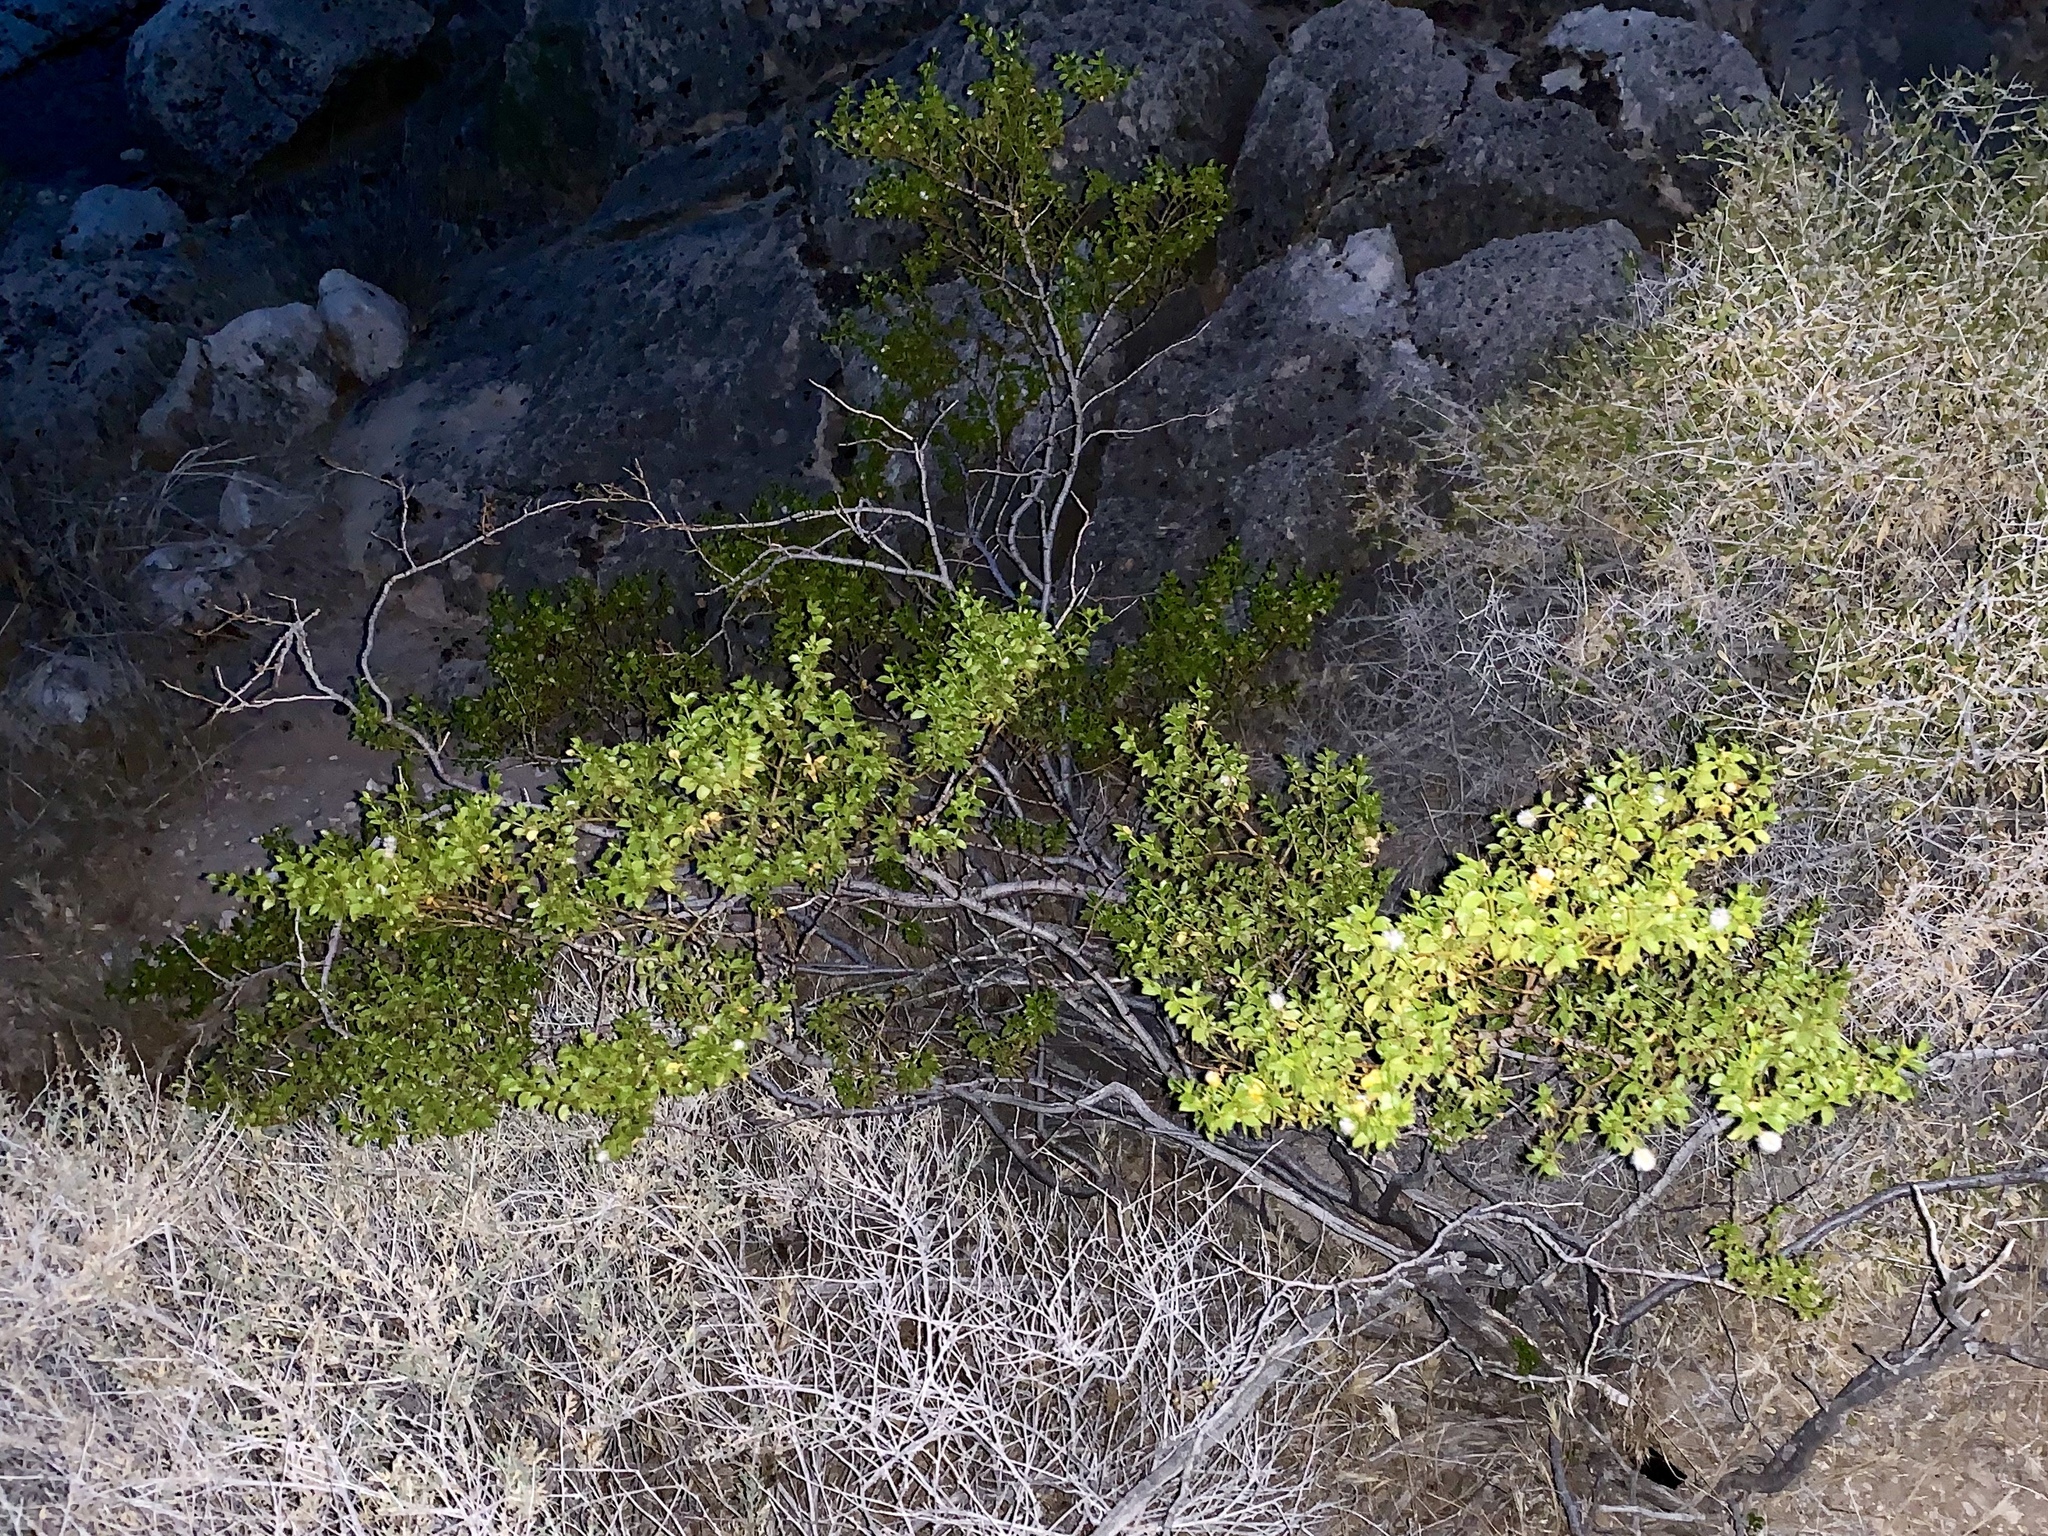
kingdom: Plantae
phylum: Tracheophyta
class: Magnoliopsida
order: Zygophyllales
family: Zygophyllaceae
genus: Larrea
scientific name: Larrea tridentata
